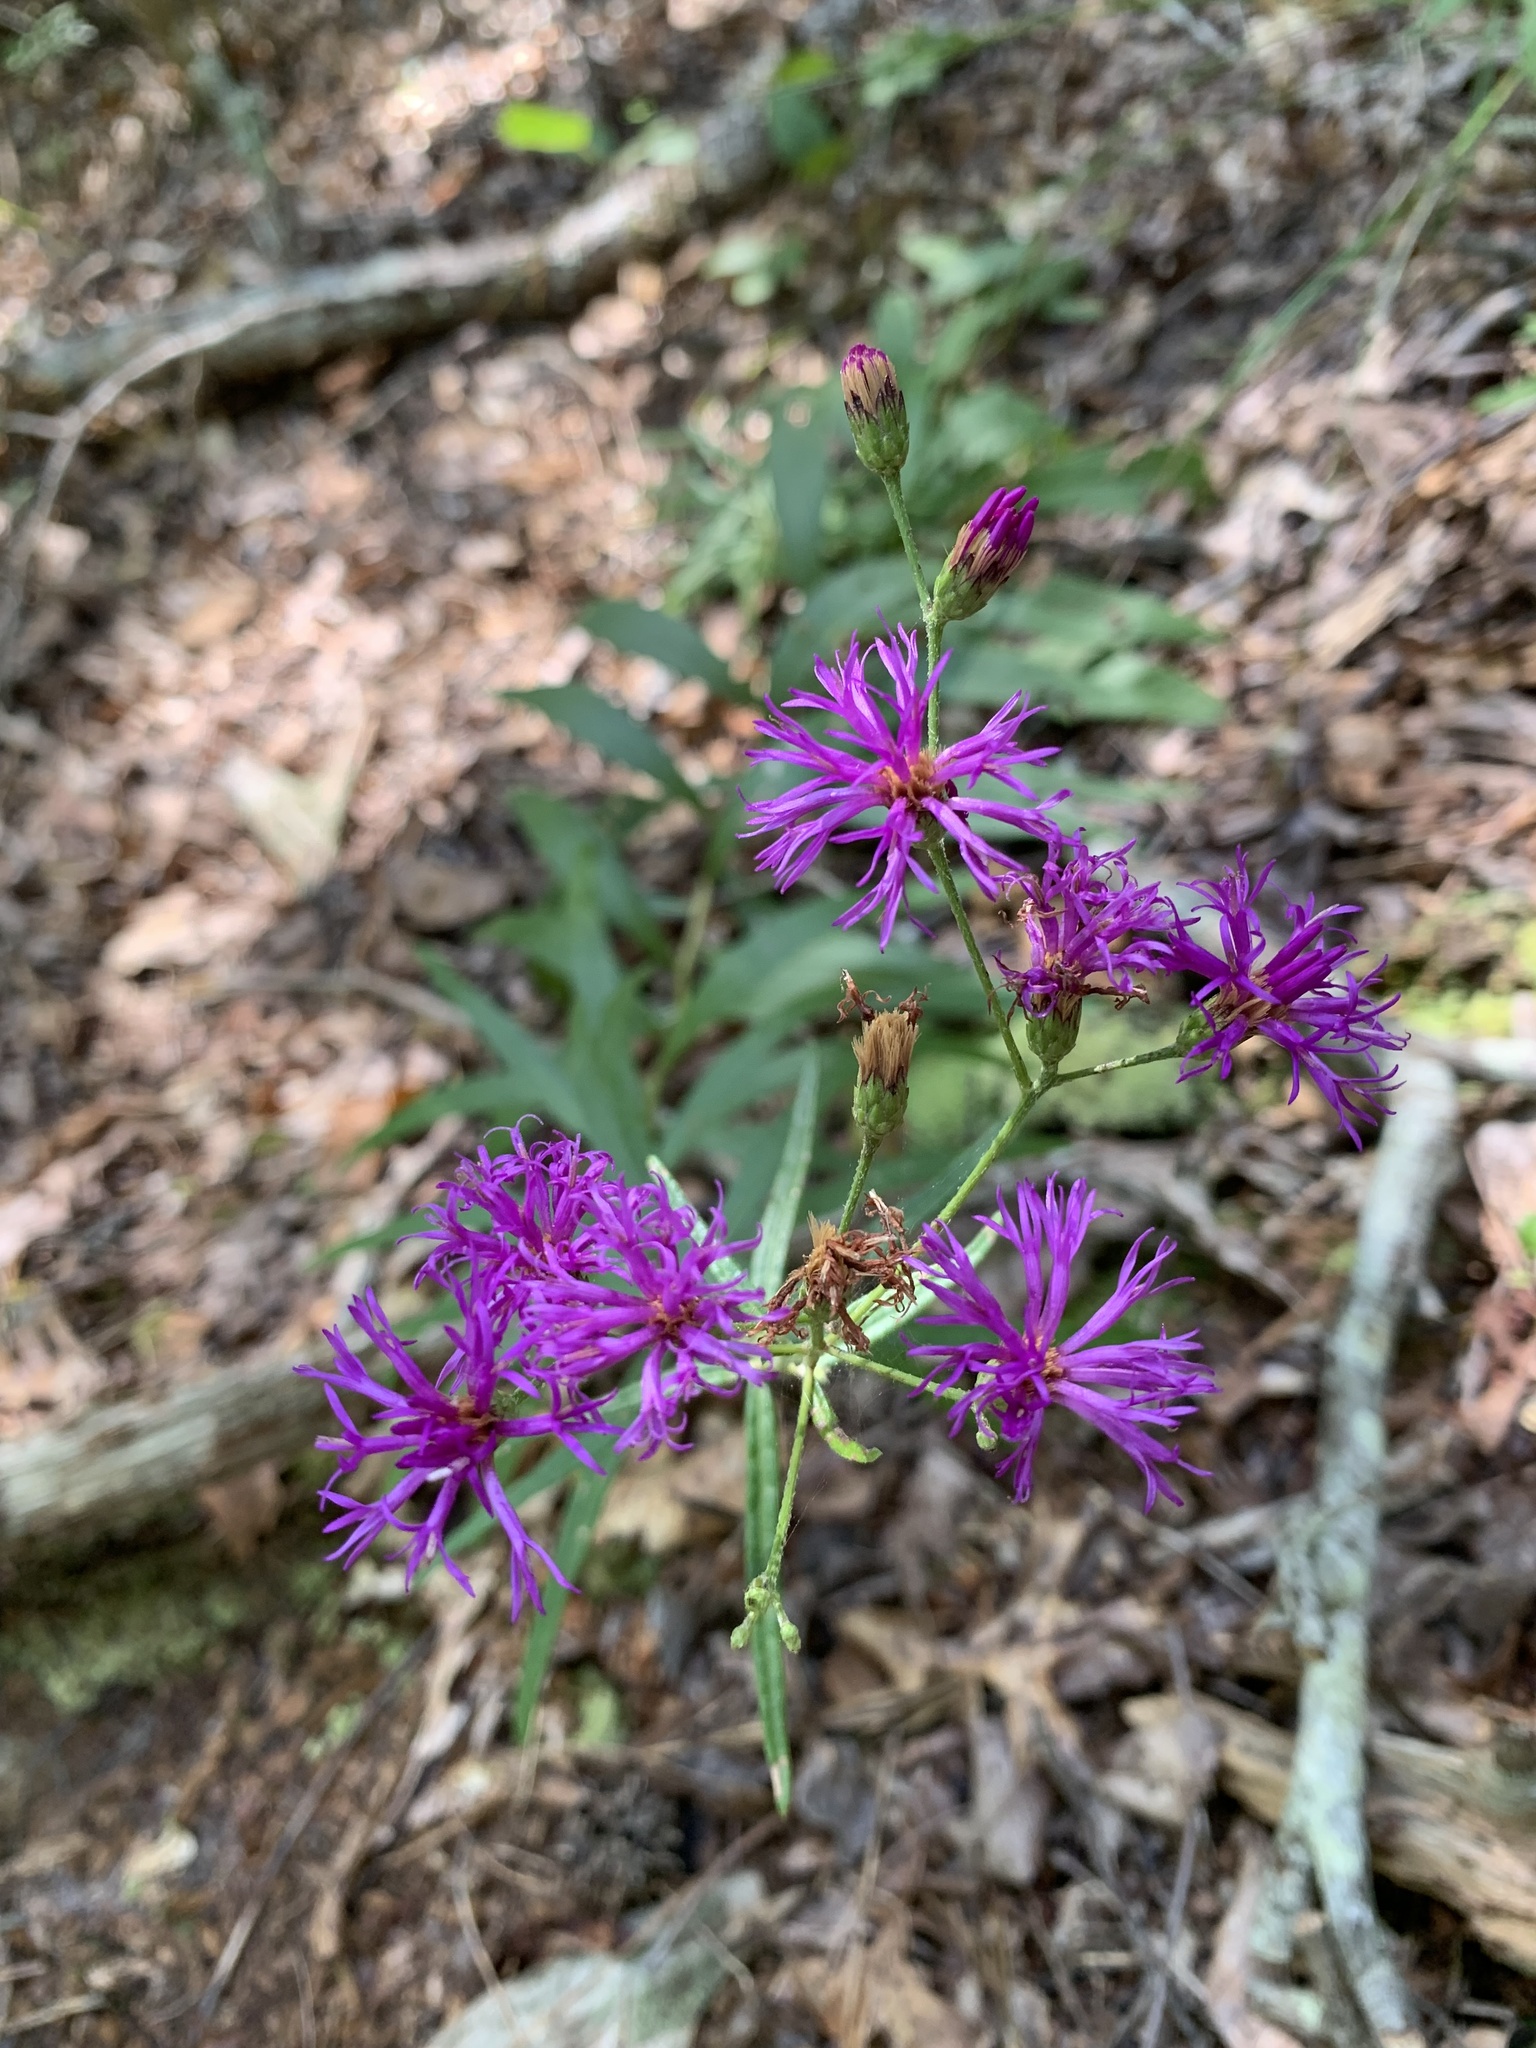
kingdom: Plantae
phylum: Tracheophyta
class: Magnoliopsida
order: Asterales
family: Asteraceae
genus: Vernonia
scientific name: Vernonia texana
